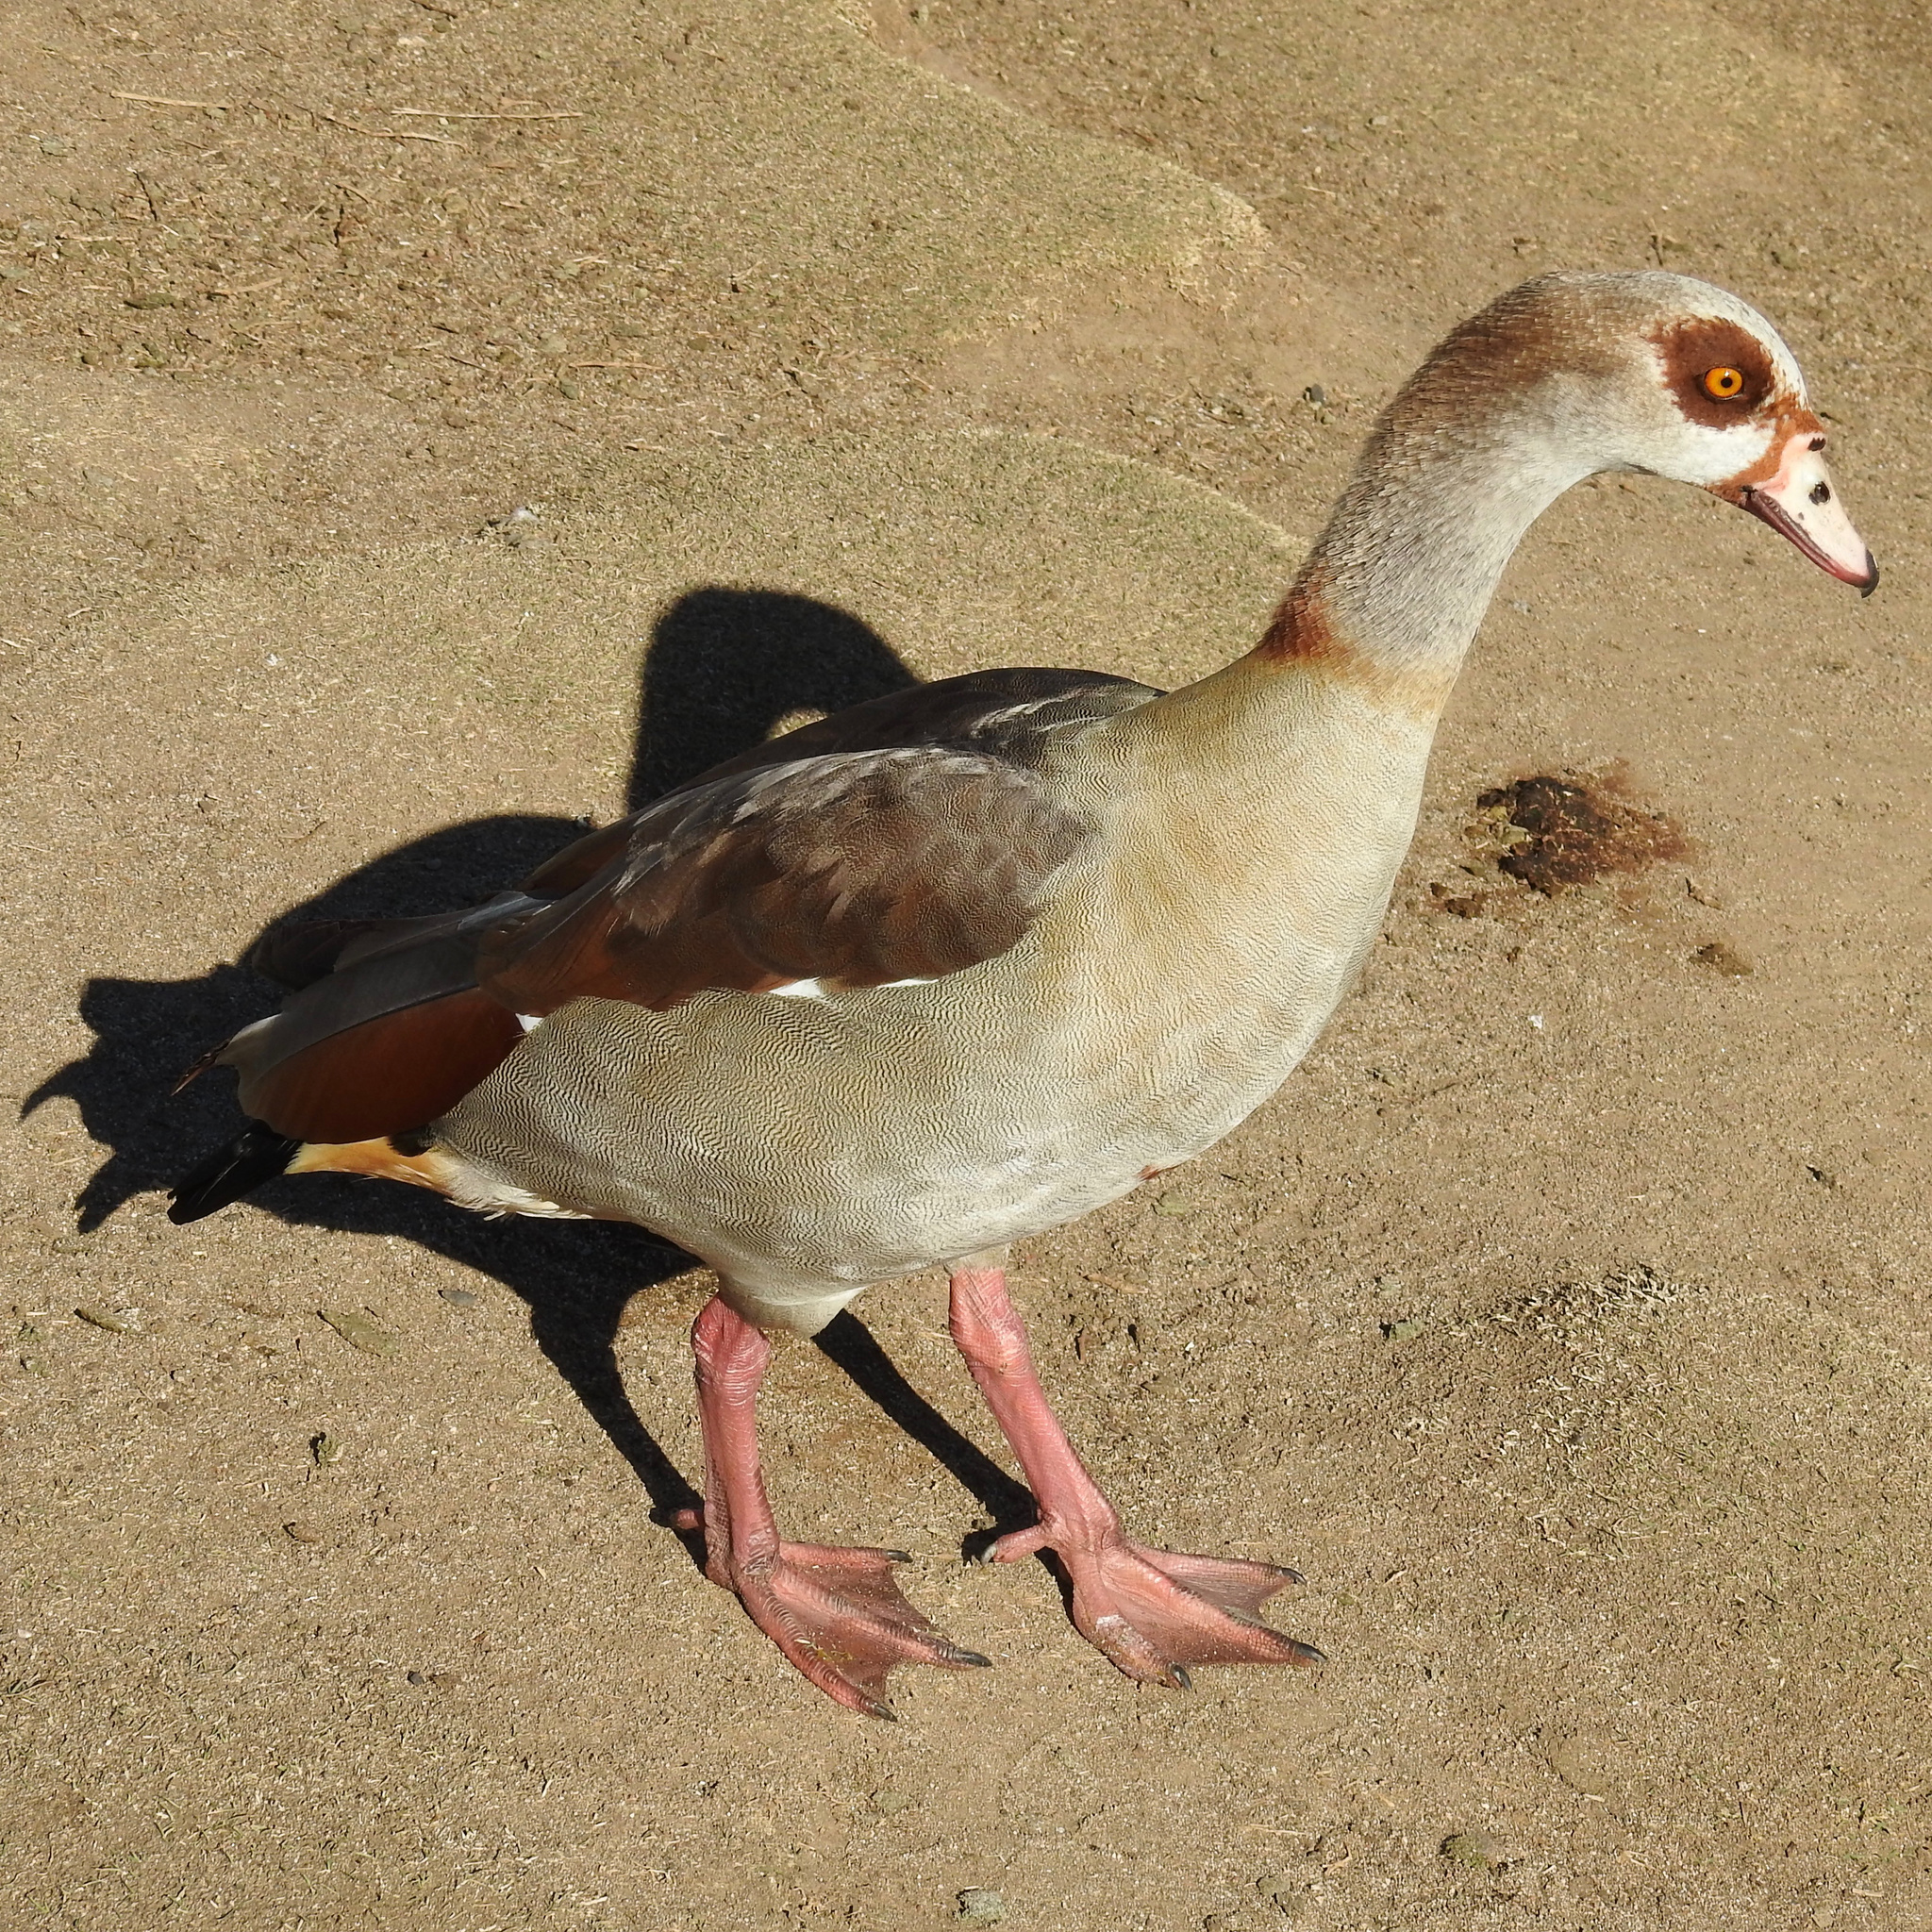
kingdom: Animalia
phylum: Chordata
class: Aves
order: Anseriformes
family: Anatidae
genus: Alopochen
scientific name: Alopochen aegyptiaca
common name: Egyptian goose
